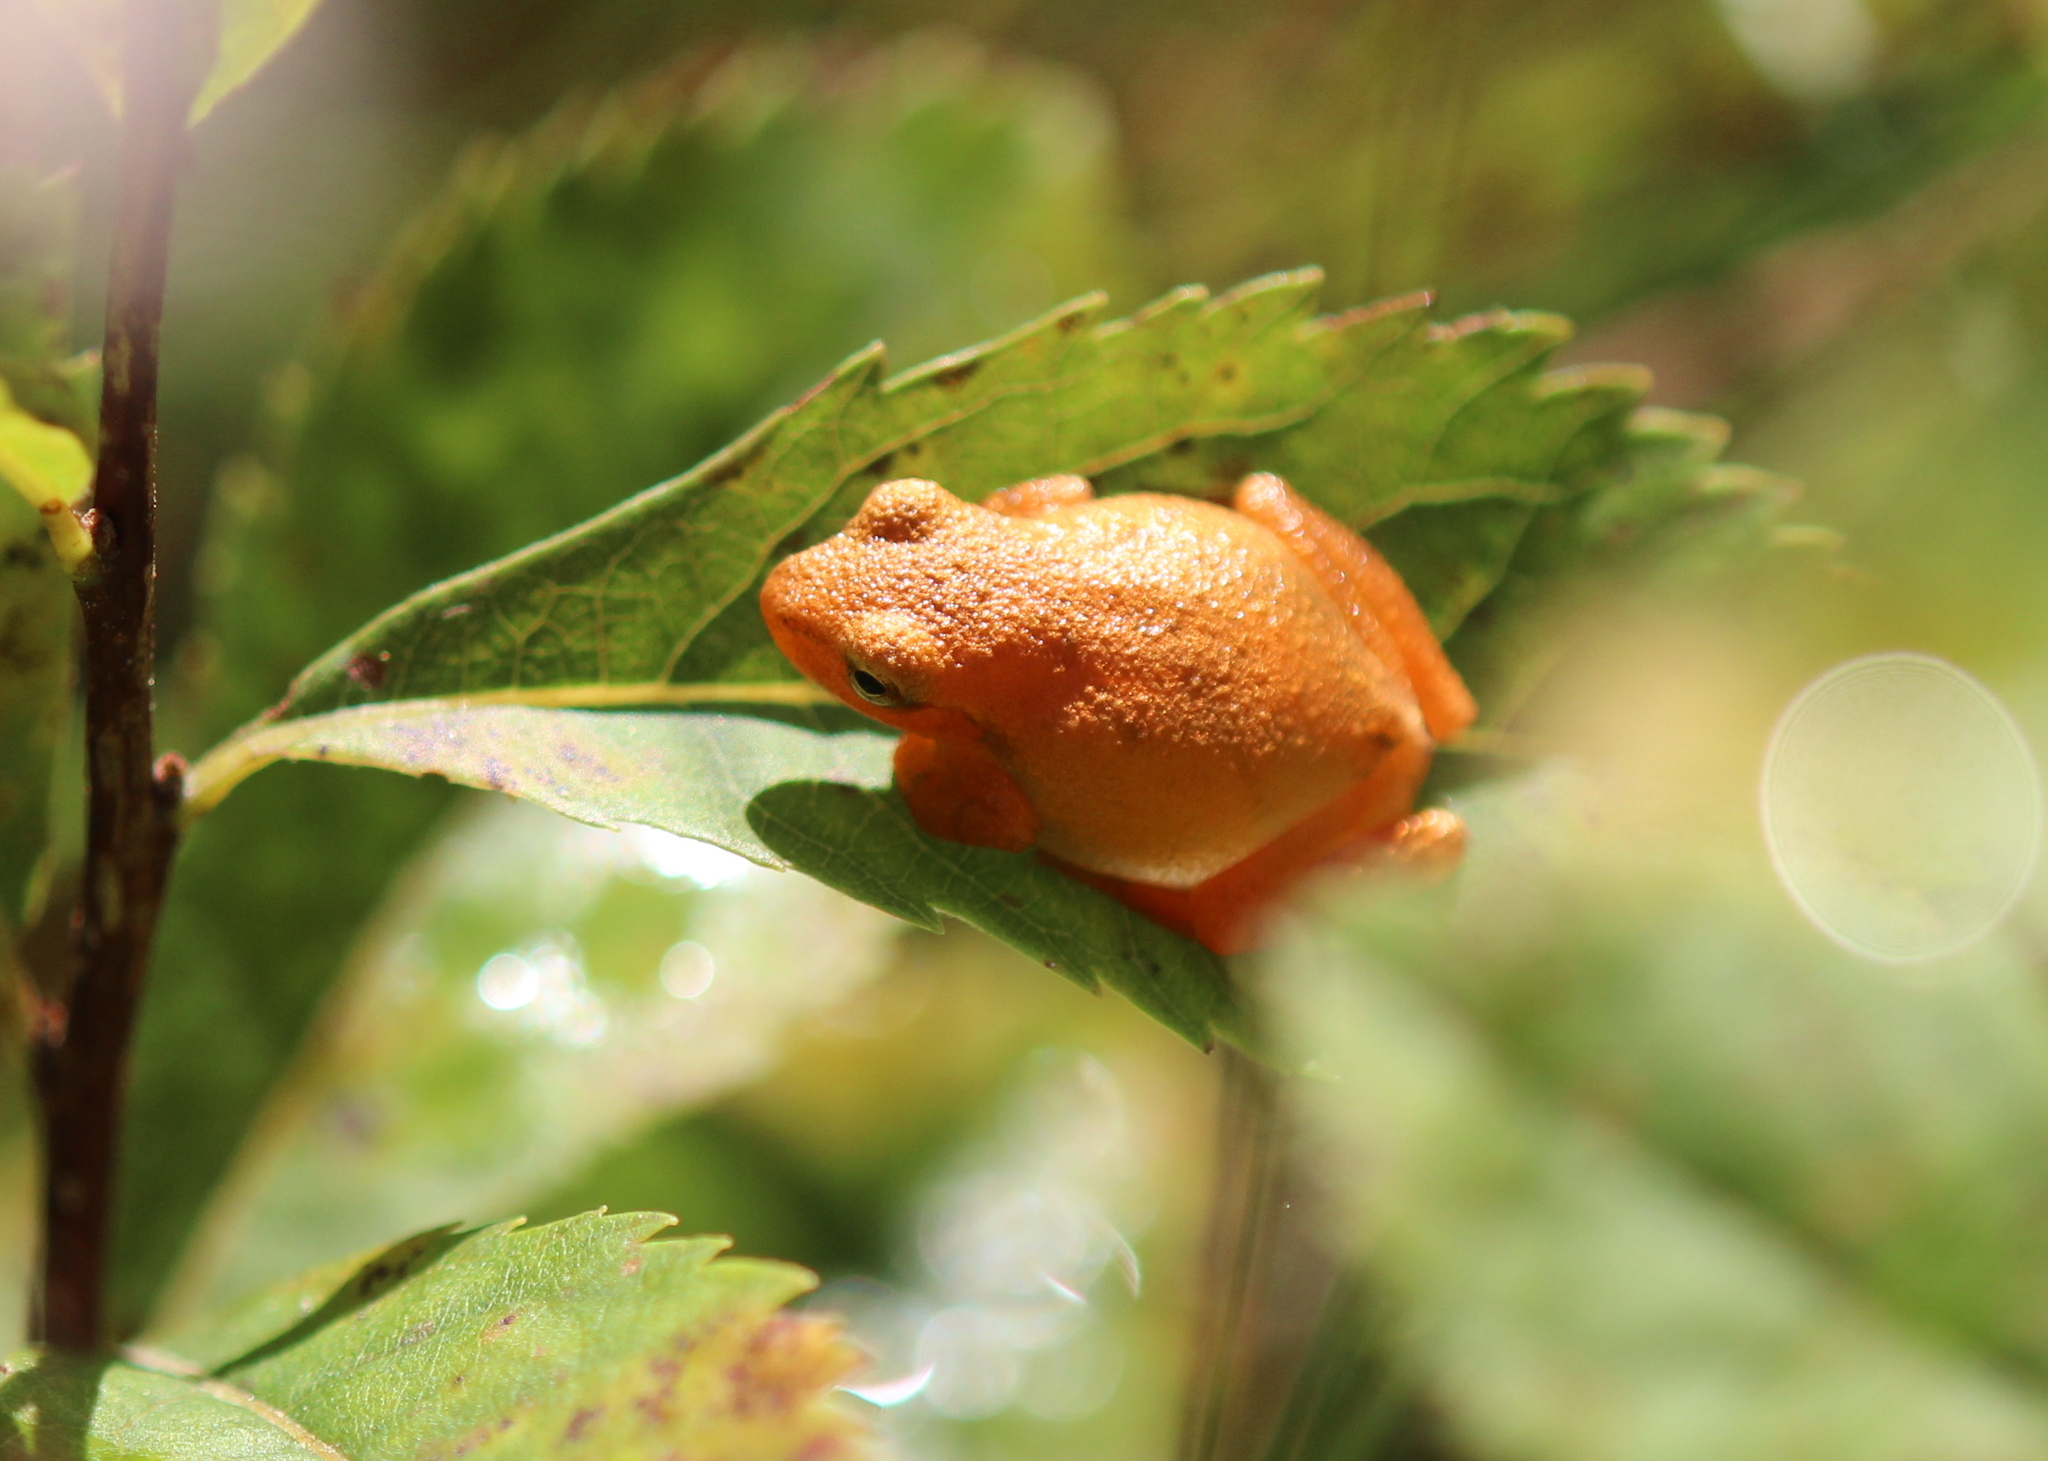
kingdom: Animalia
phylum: Chordata
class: Amphibia
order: Anura
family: Hylidae
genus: Pseudacris
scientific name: Pseudacris crucifer
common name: Spring peeper
